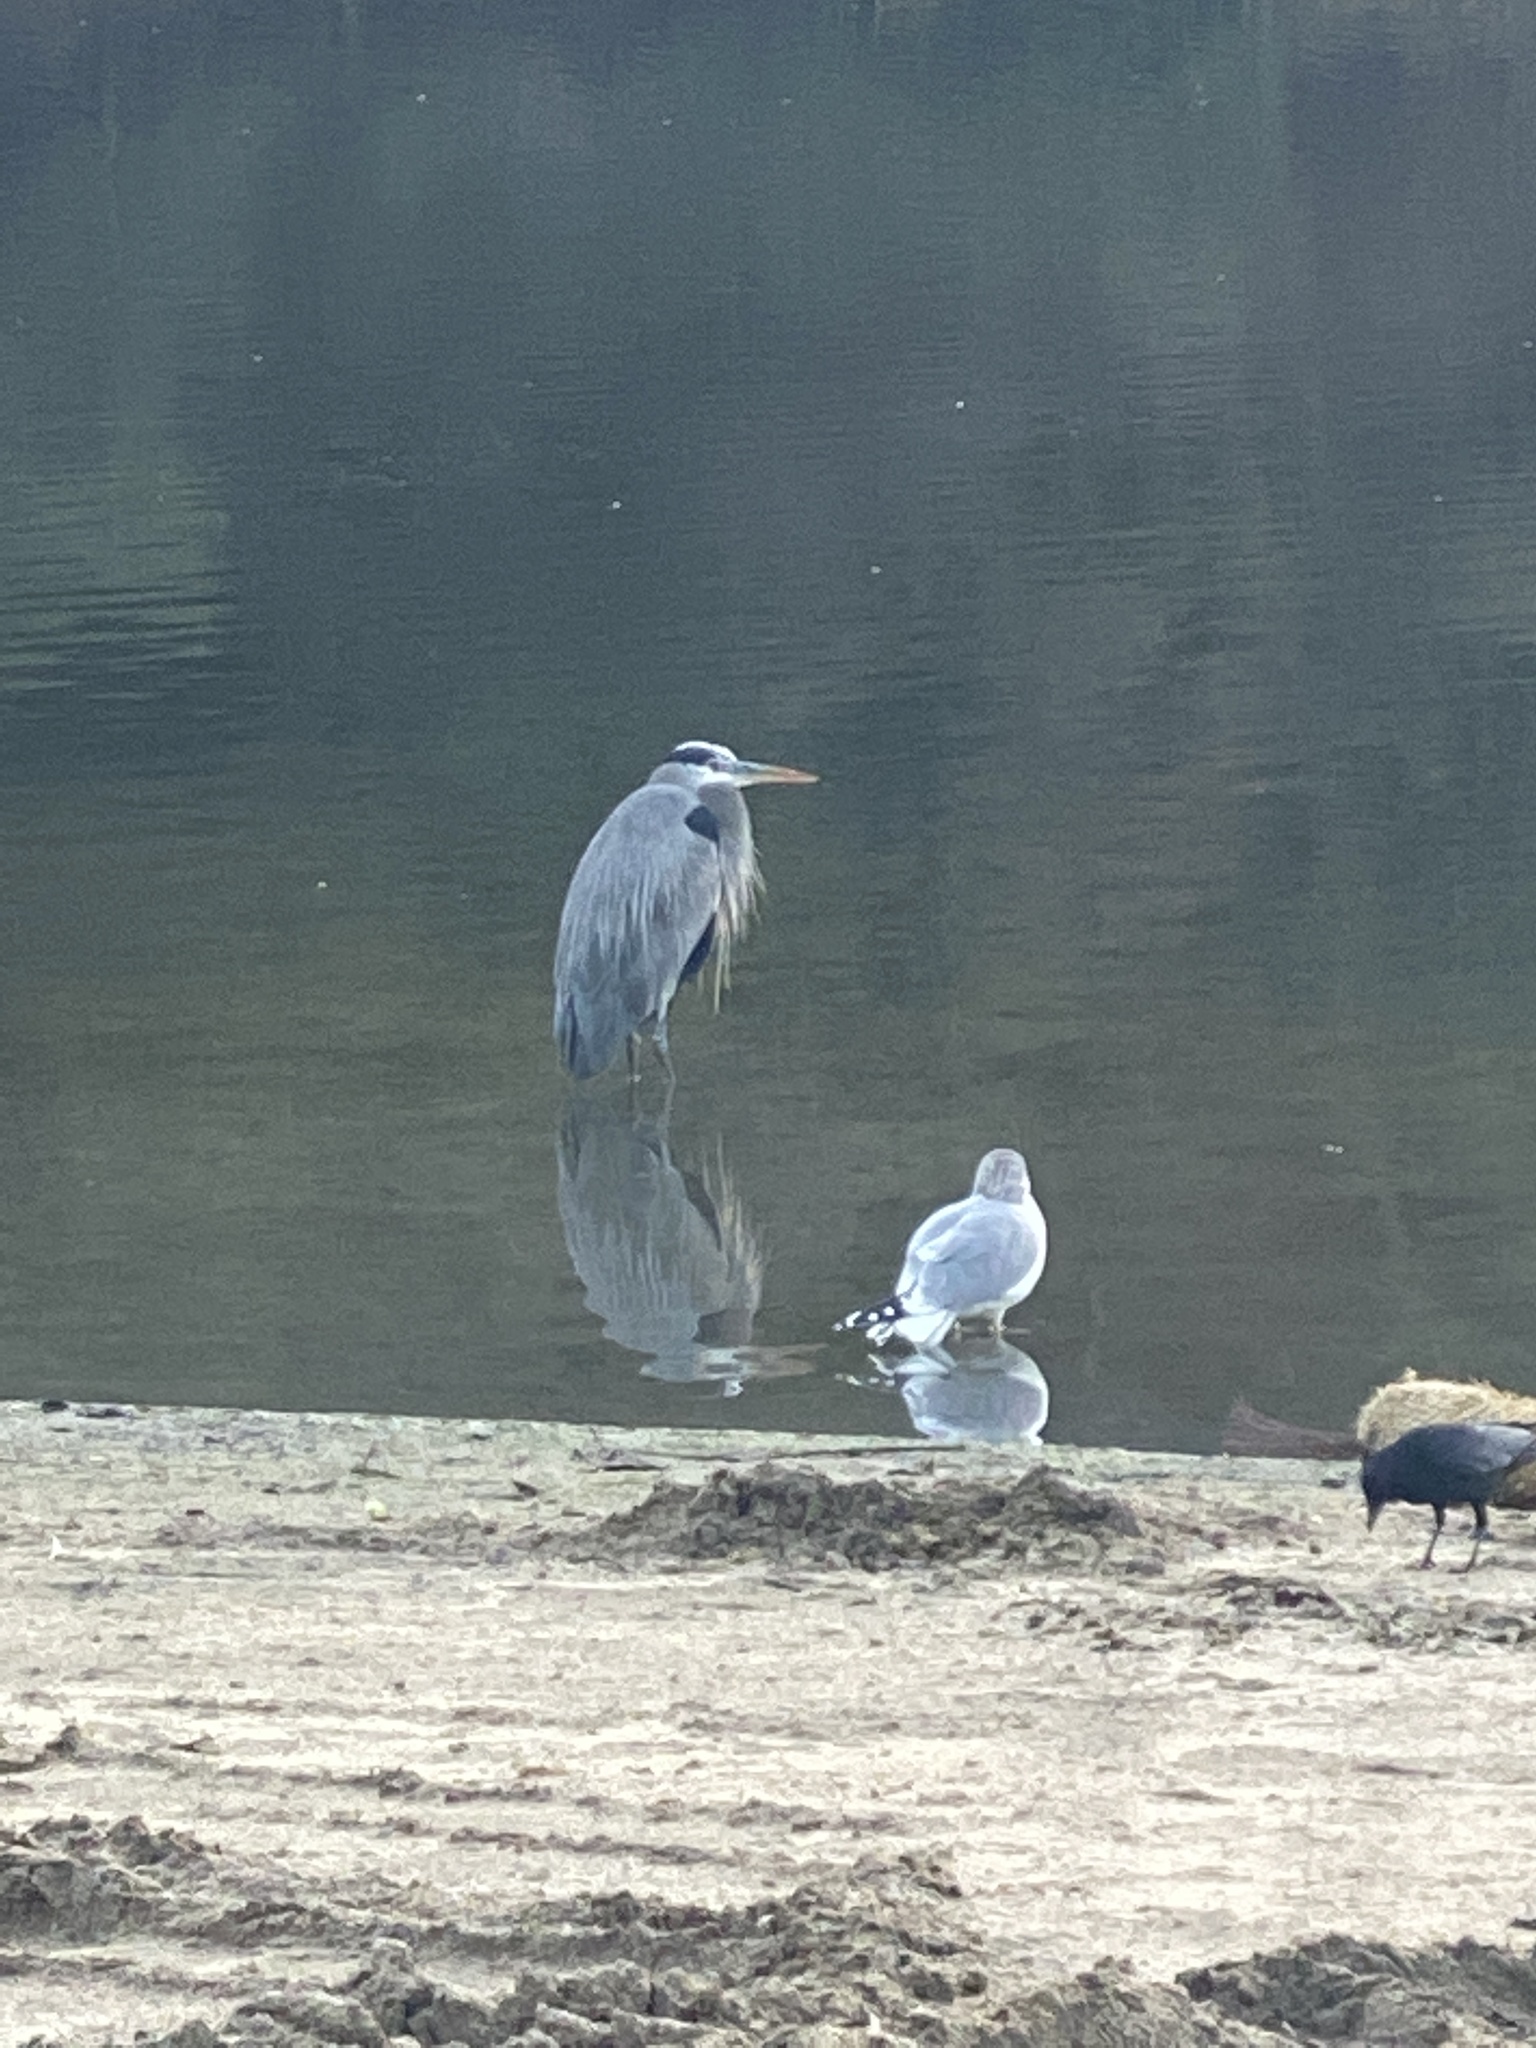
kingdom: Animalia
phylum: Chordata
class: Aves
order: Pelecaniformes
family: Ardeidae
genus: Ardea
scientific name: Ardea herodias
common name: Great blue heron
